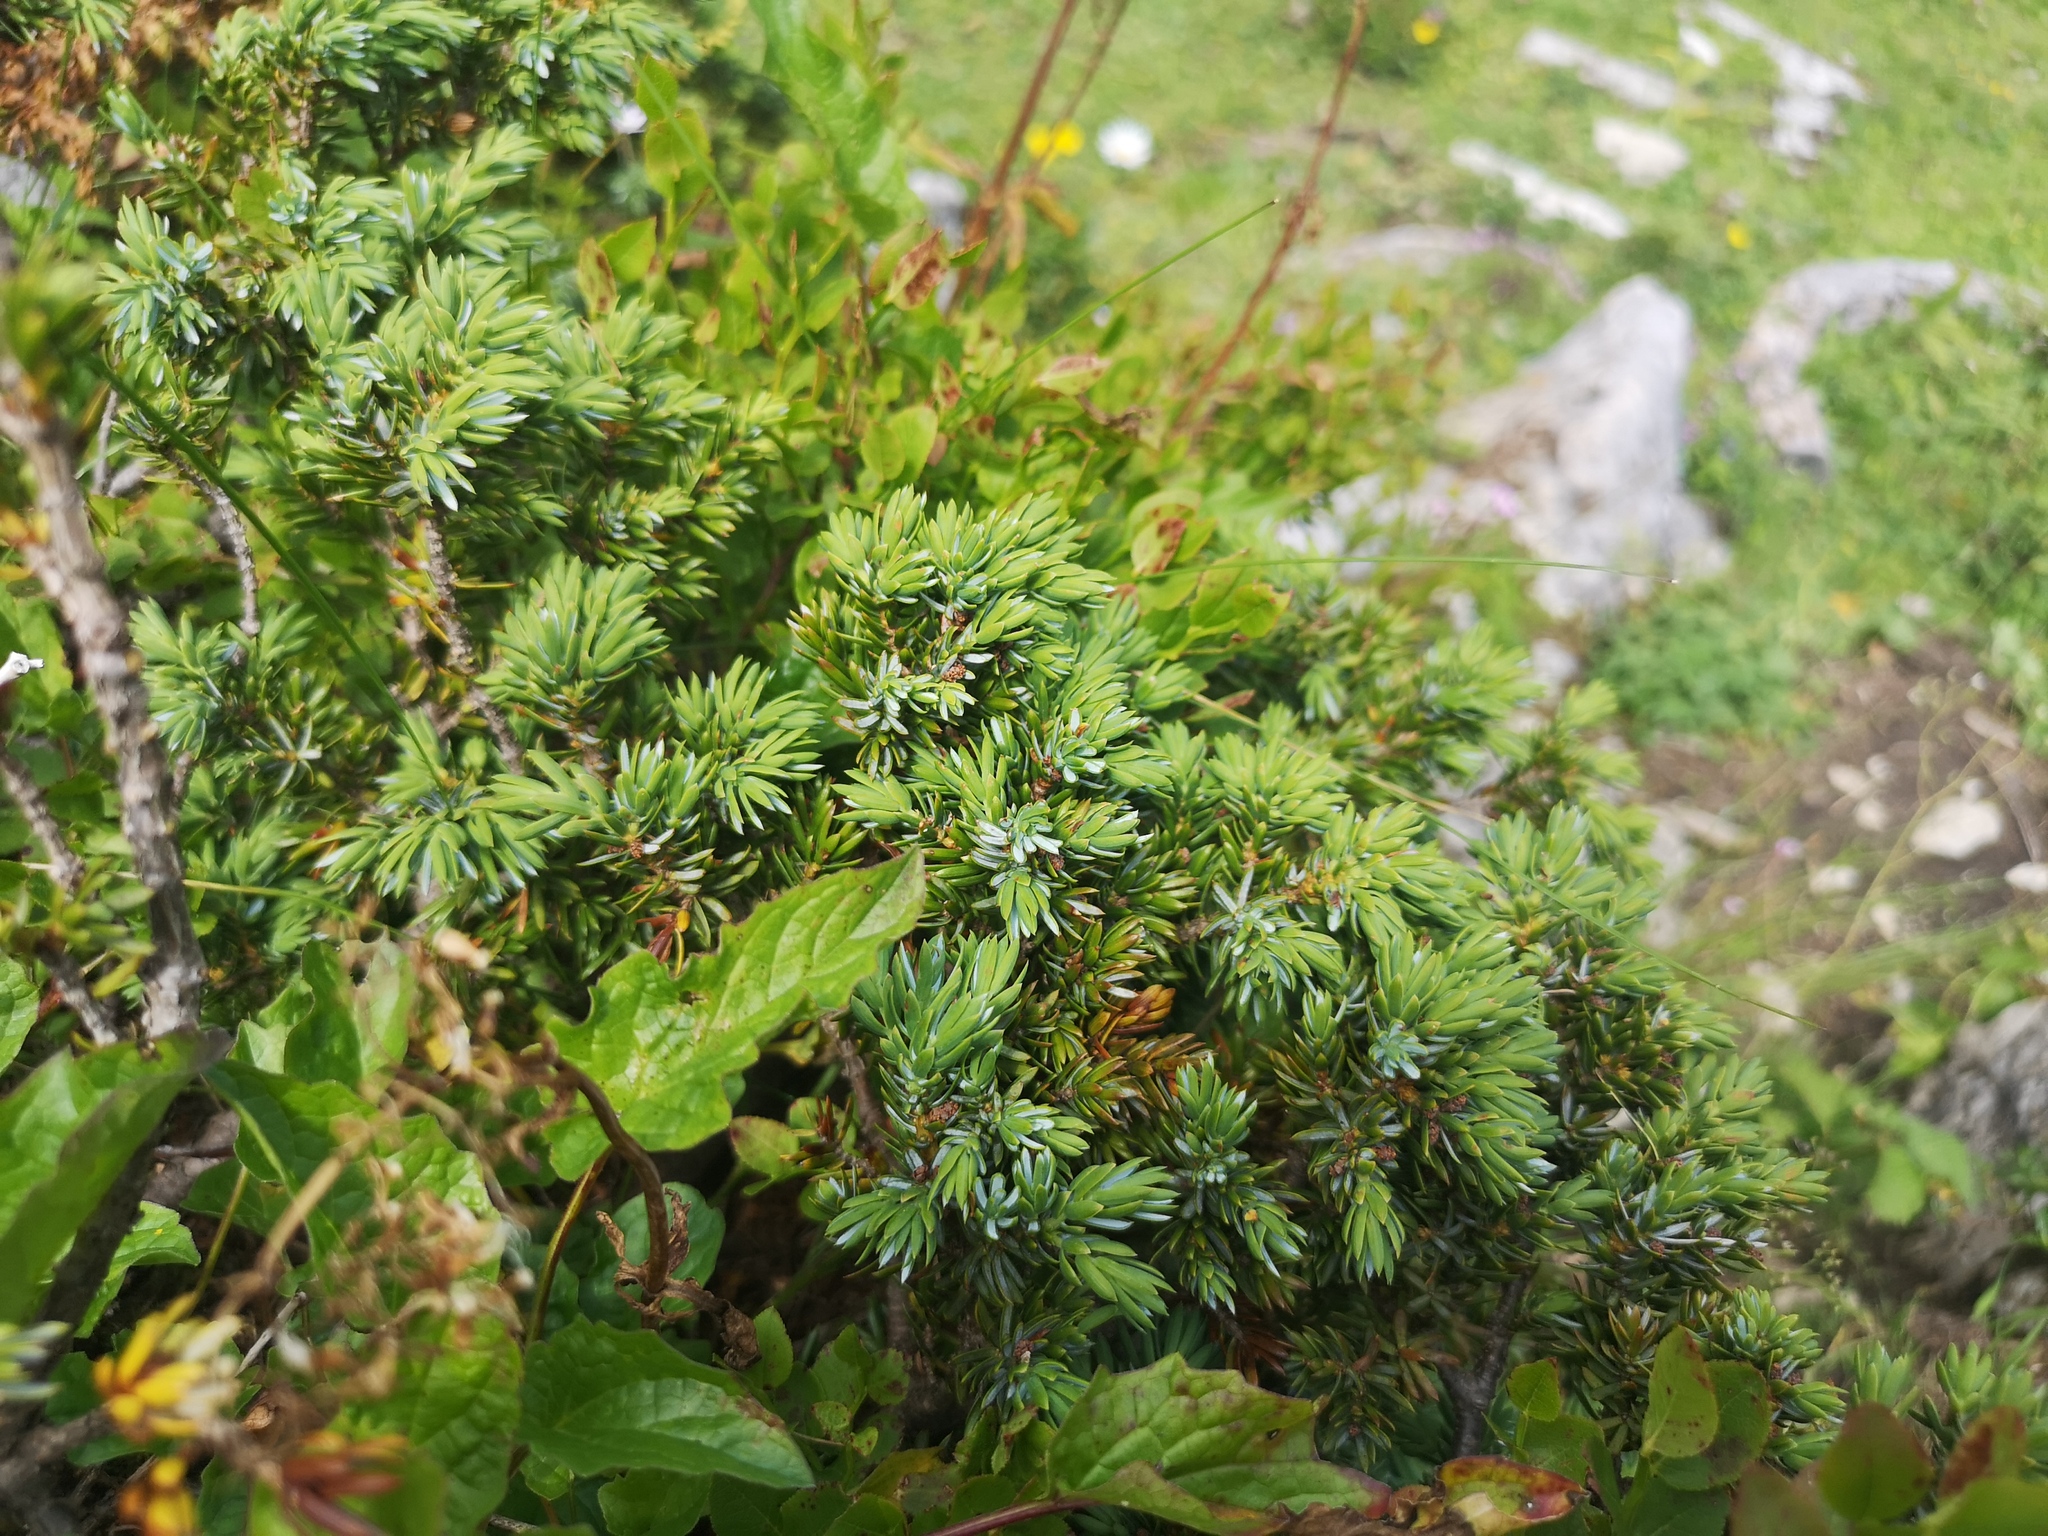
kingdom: Plantae
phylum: Tracheophyta
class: Pinopsida
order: Pinales
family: Cupressaceae
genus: Juniperus
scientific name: Juniperus communis
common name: Common juniper
